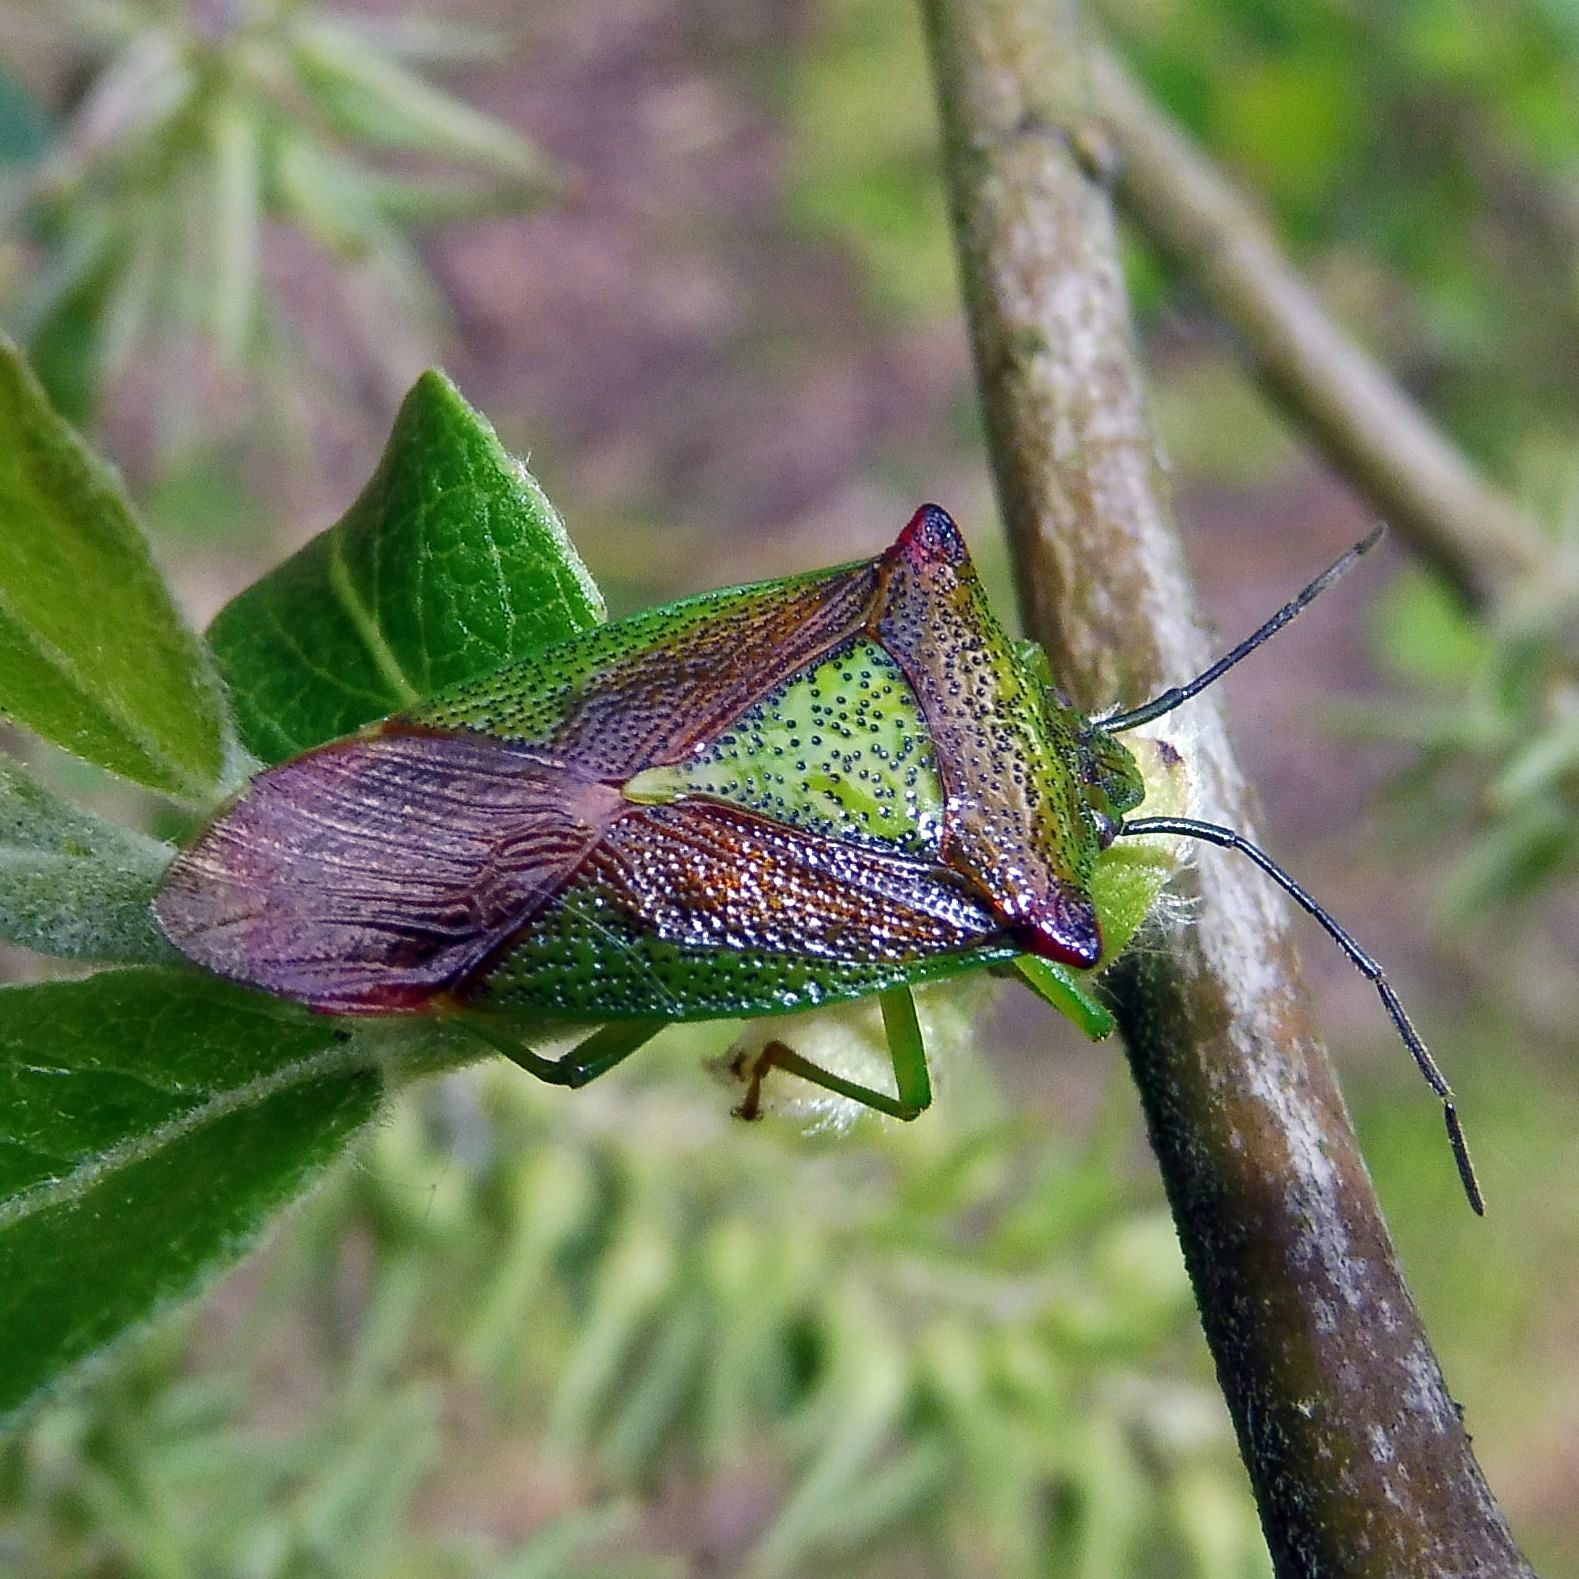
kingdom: Animalia
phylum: Arthropoda
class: Insecta
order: Hemiptera
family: Acanthosomatidae
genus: Acanthosoma
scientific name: Acanthosoma haemorrhoidale
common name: Hawthorn shieldbug
